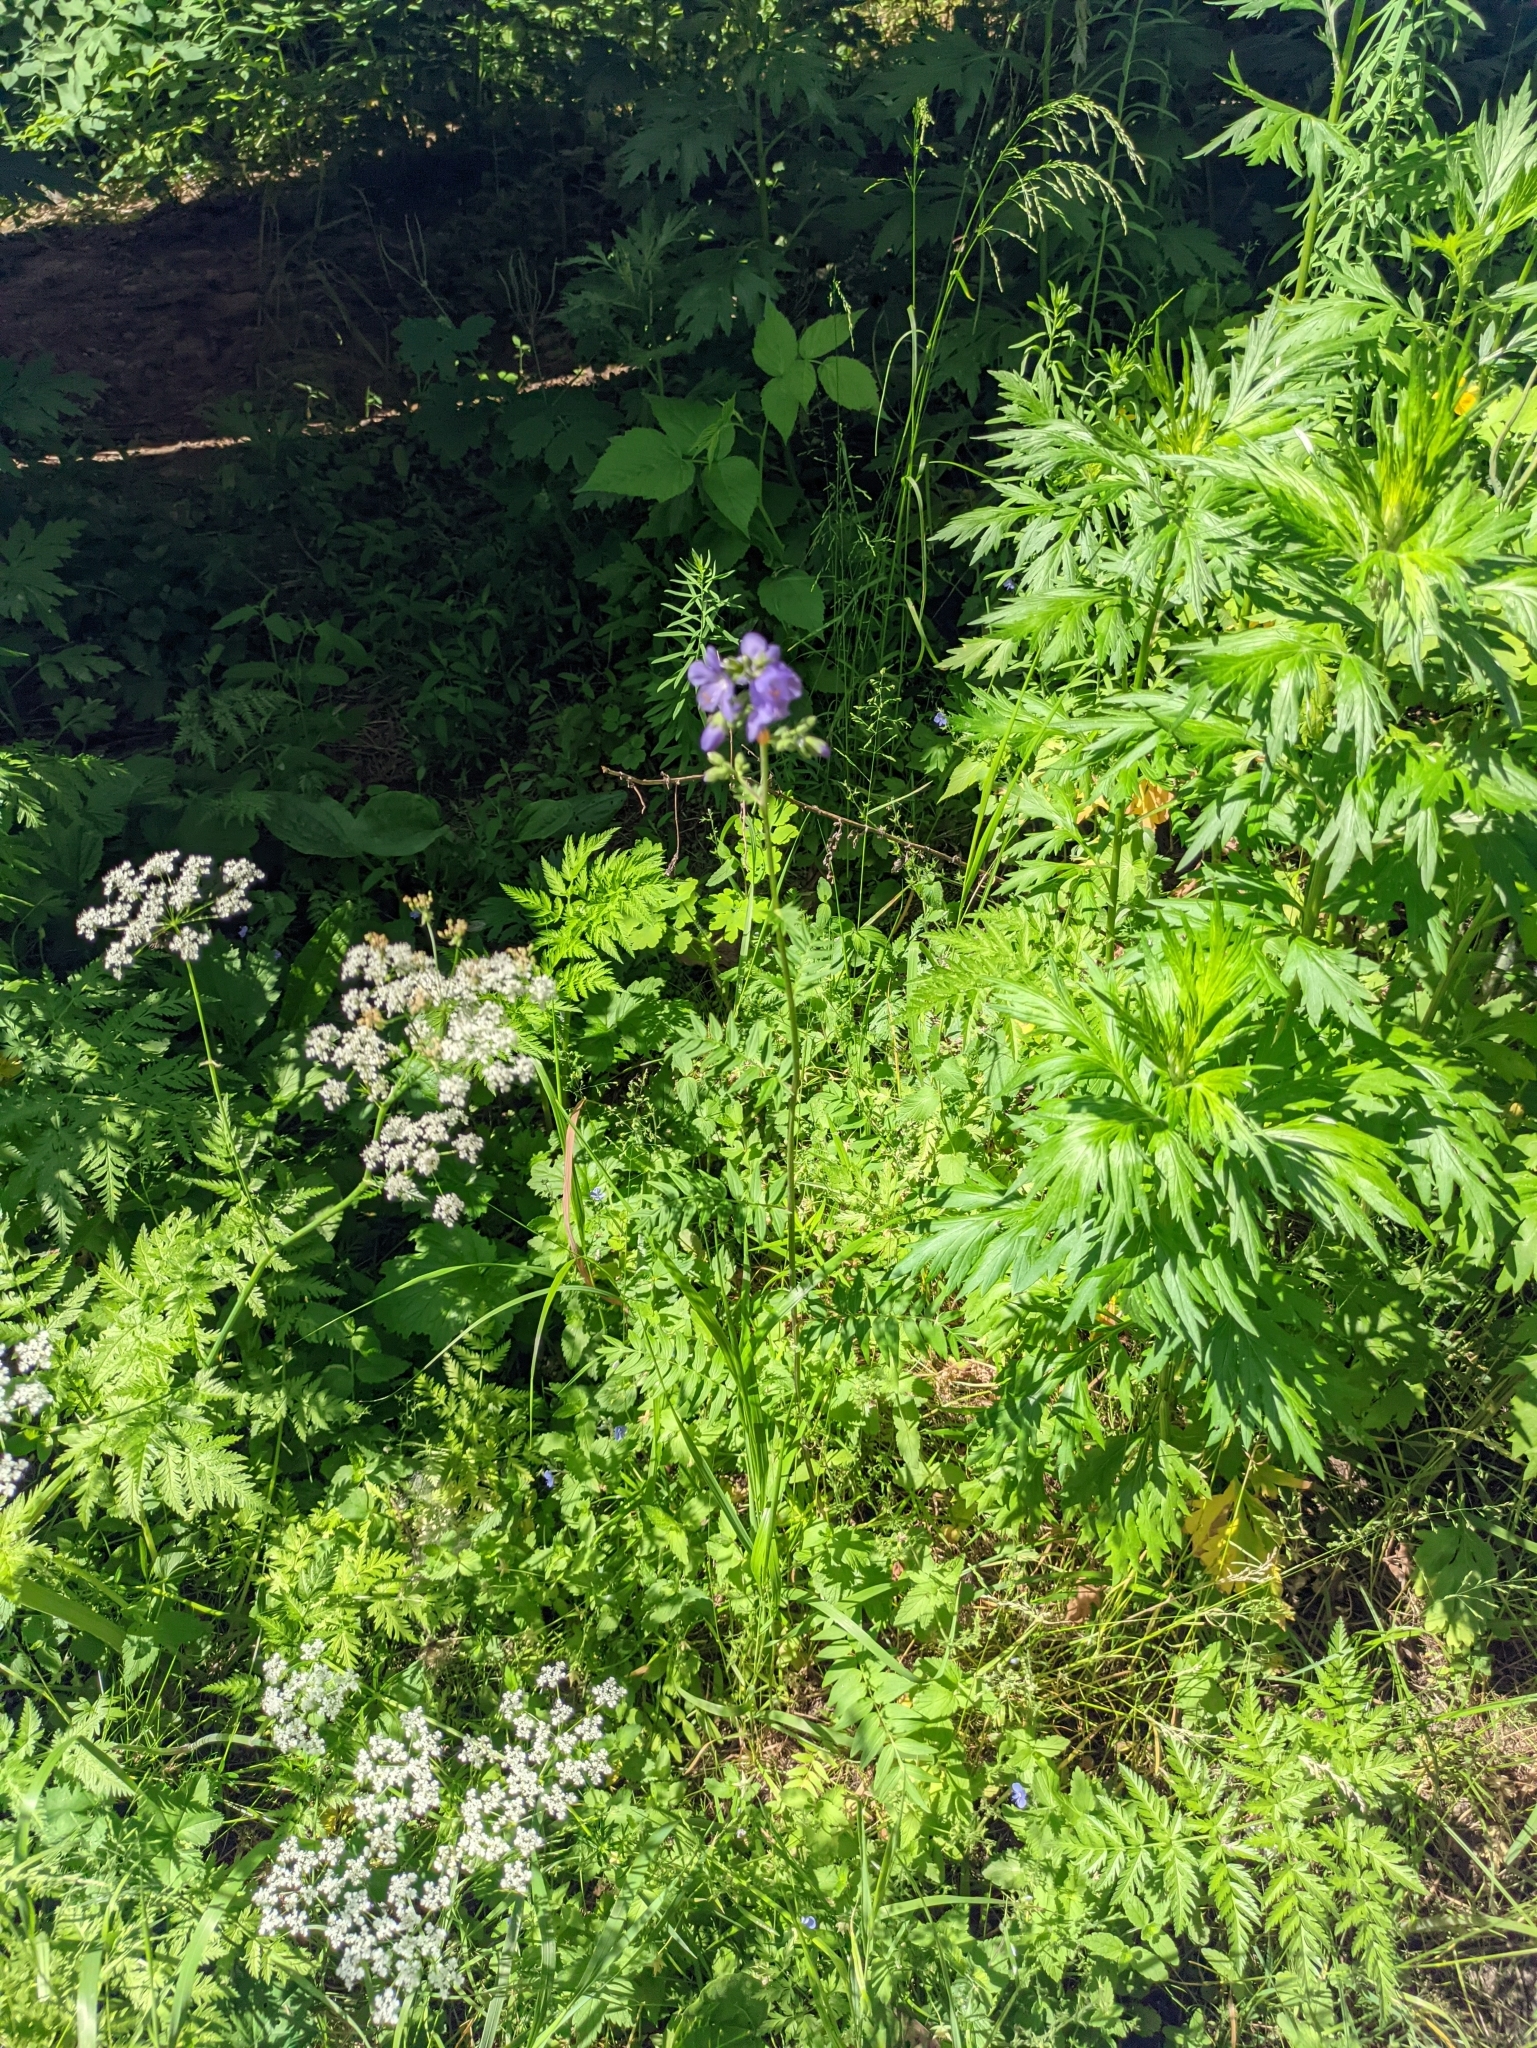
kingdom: Plantae
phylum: Tracheophyta
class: Magnoliopsida
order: Ericales
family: Polemoniaceae
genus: Polemonium
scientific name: Polemonium caeruleum
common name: Jacob's-ladder
